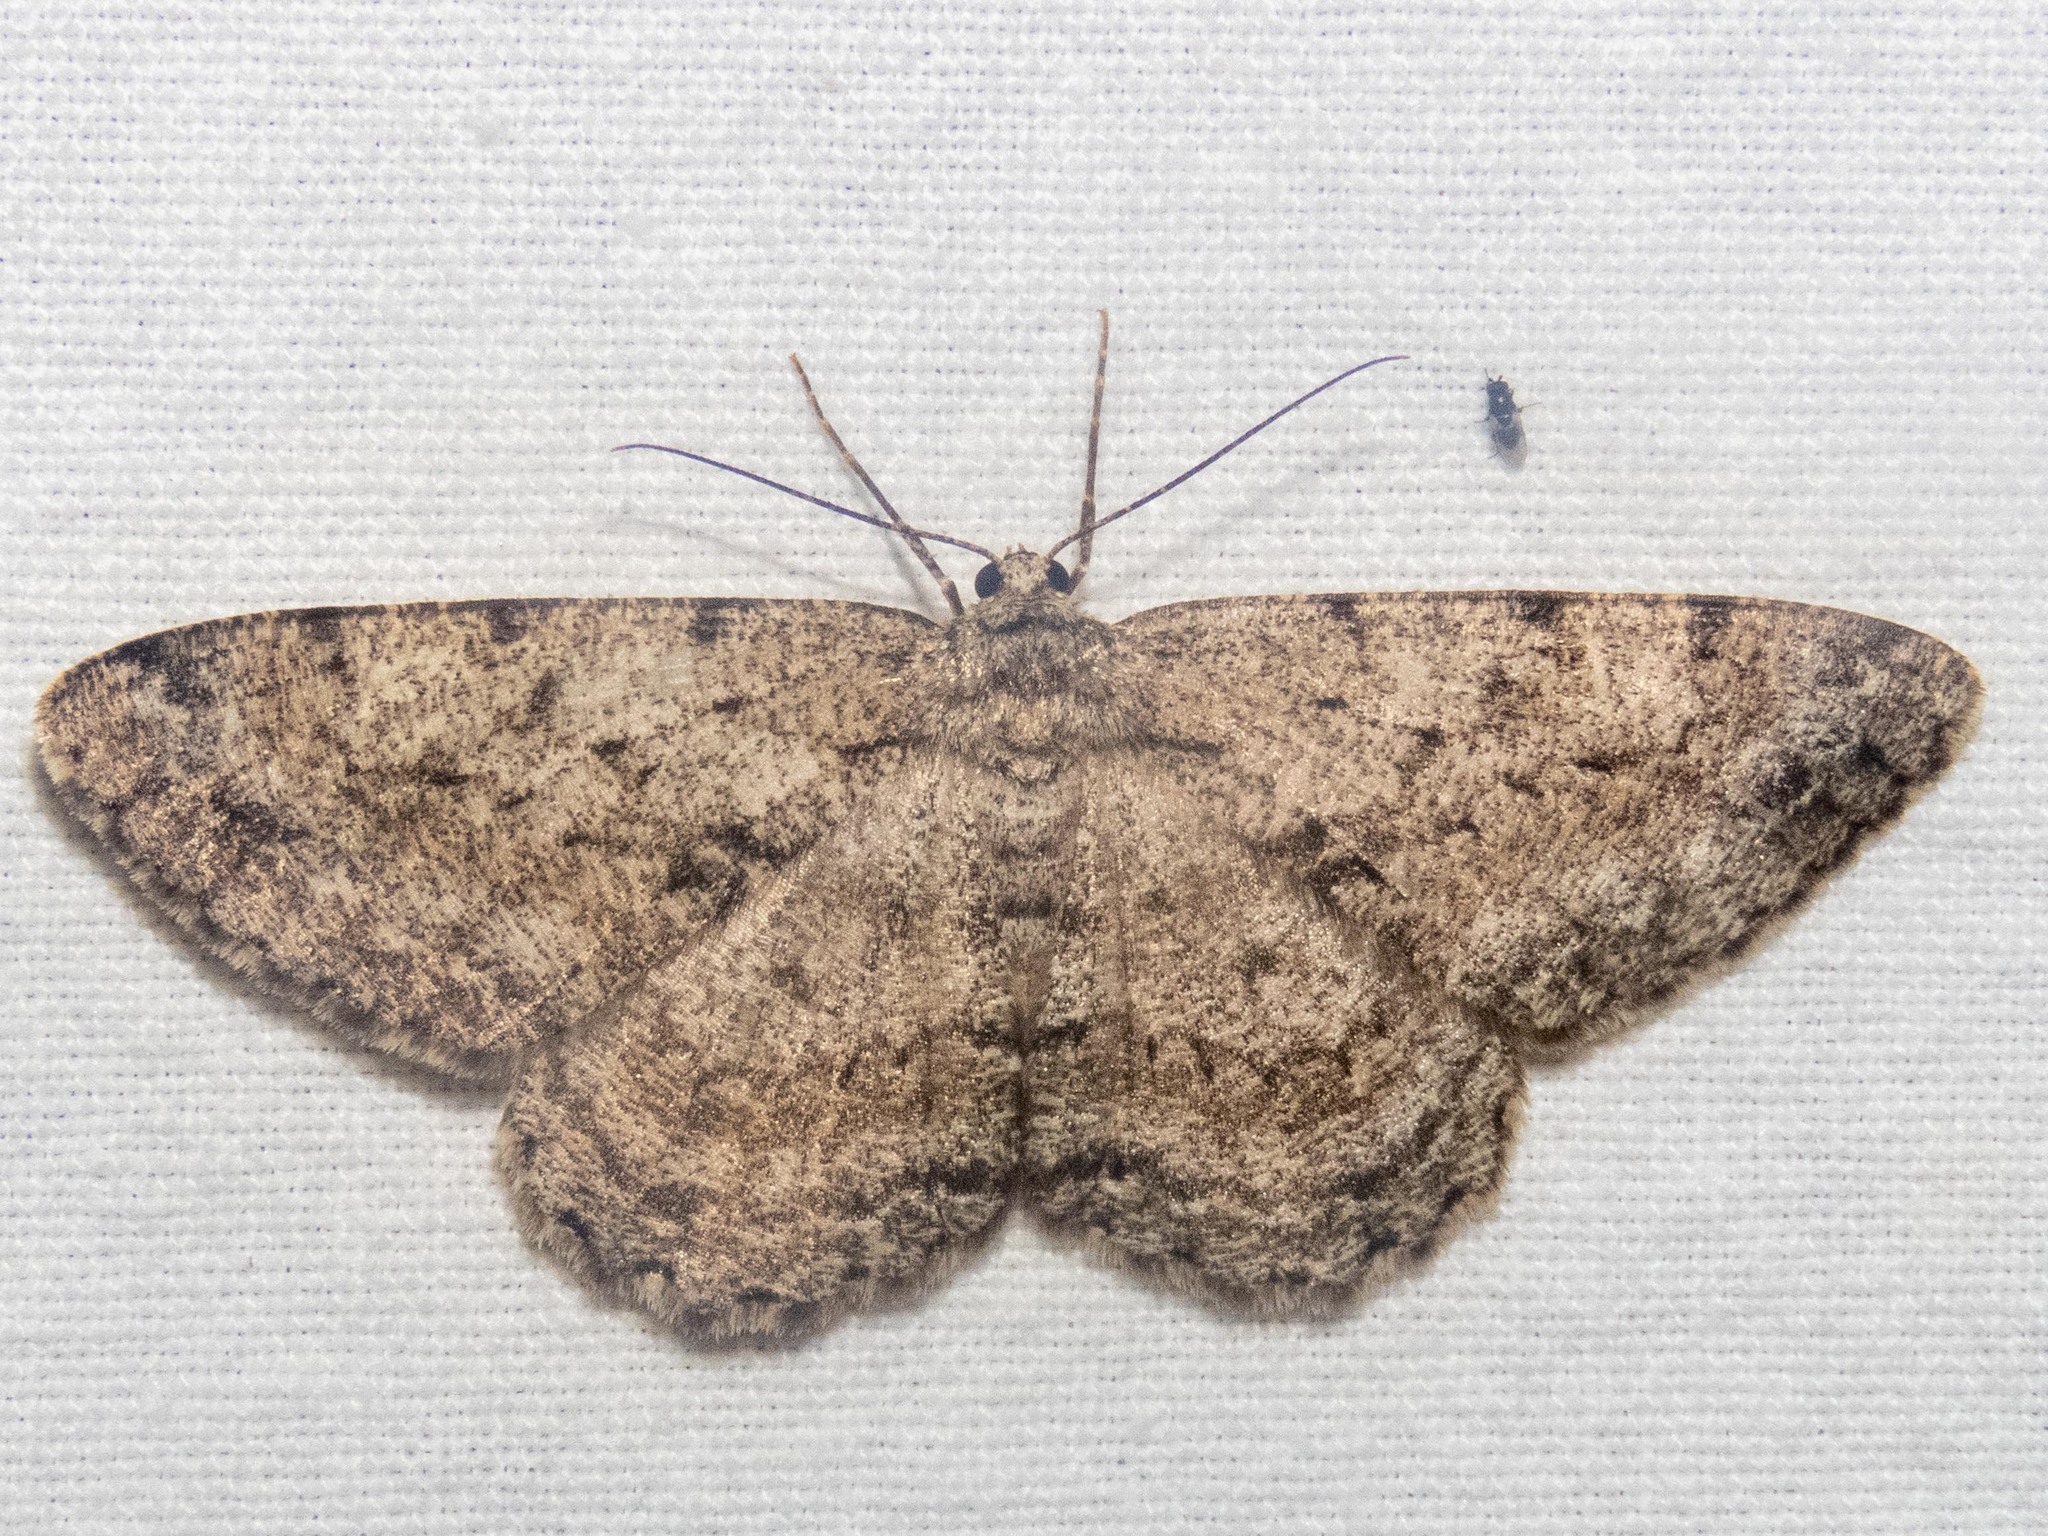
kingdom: Animalia
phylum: Arthropoda
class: Insecta
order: Lepidoptera
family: Geometridae
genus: Hypomecis
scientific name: Hypomecis roboraria
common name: Great oak beauty
